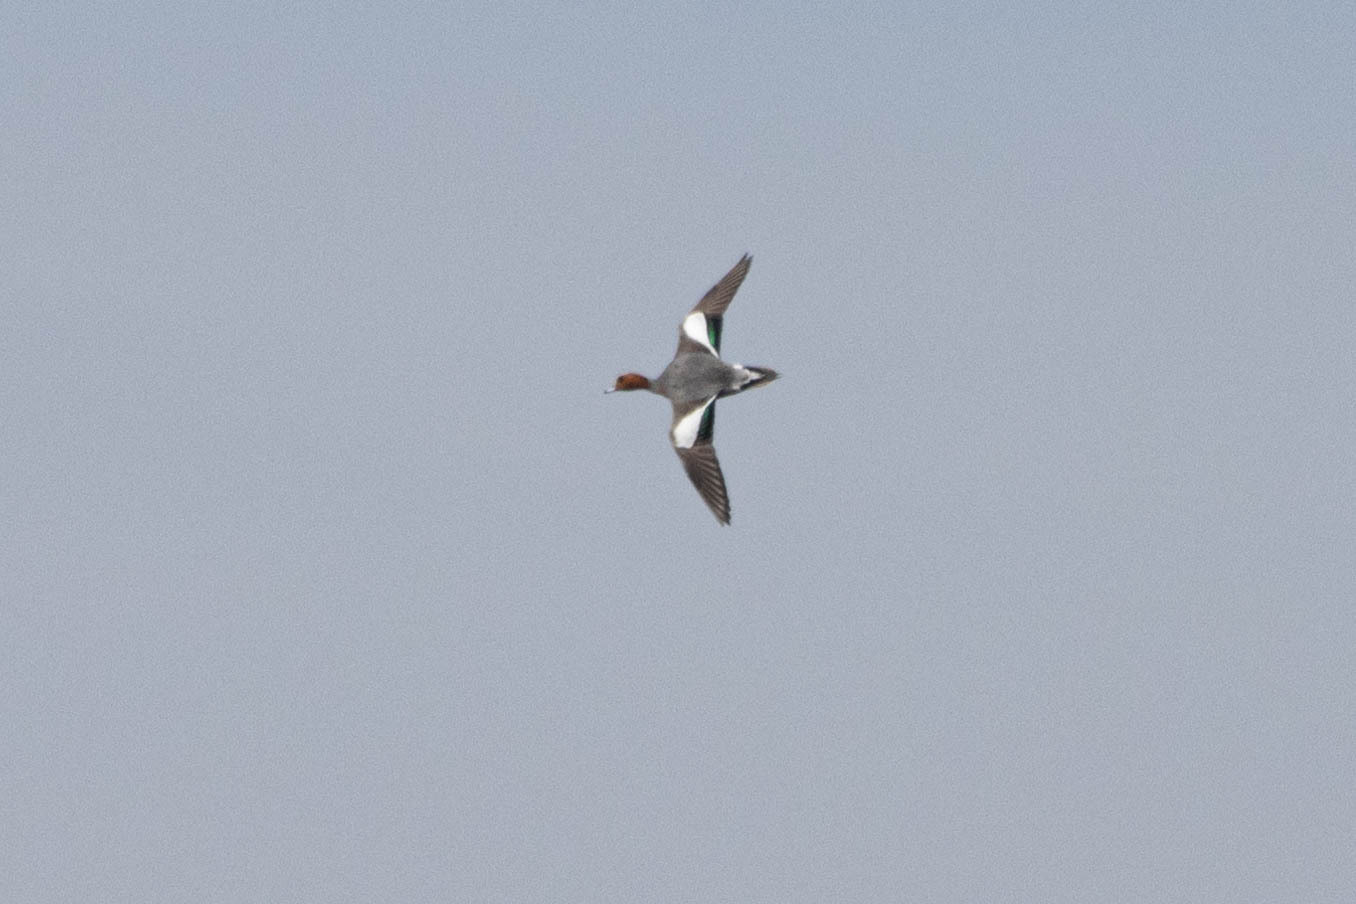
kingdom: Animalia
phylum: Chordata
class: Aves
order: Anseriformes
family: Anatidae
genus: Mareca
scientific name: Mareca penelope
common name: Eurasian wigeon
